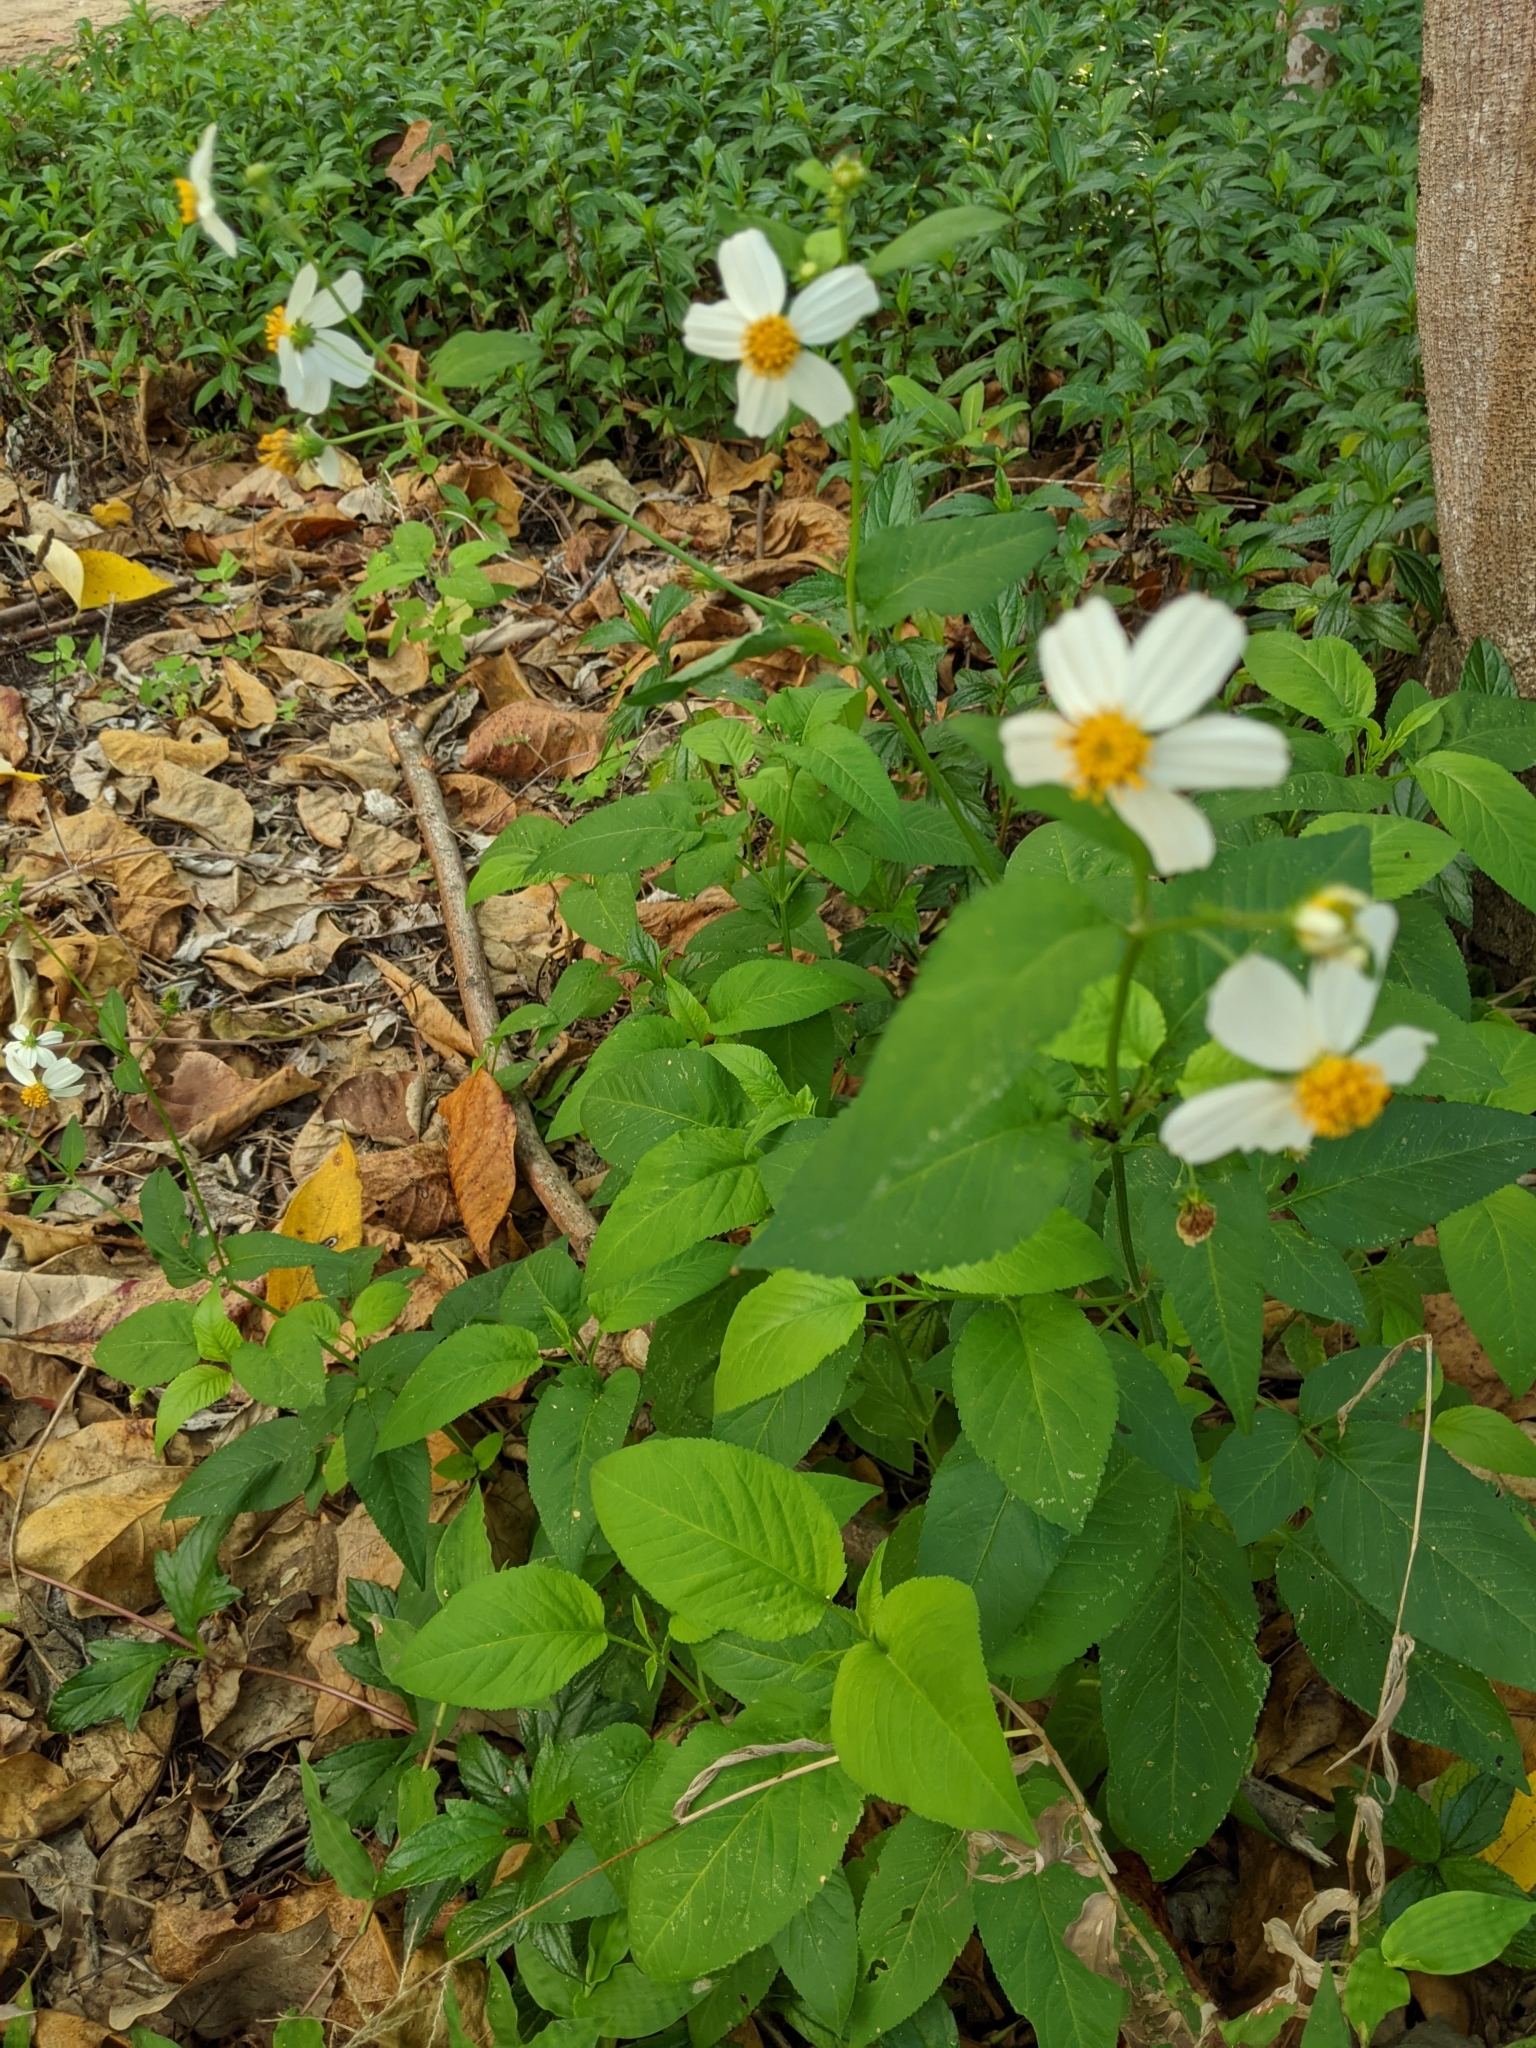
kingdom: Plantae
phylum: Tracheophyta
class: Magnoliopsida
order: Asterales
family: Asteraceae
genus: Bidens
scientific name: Bidens alba
